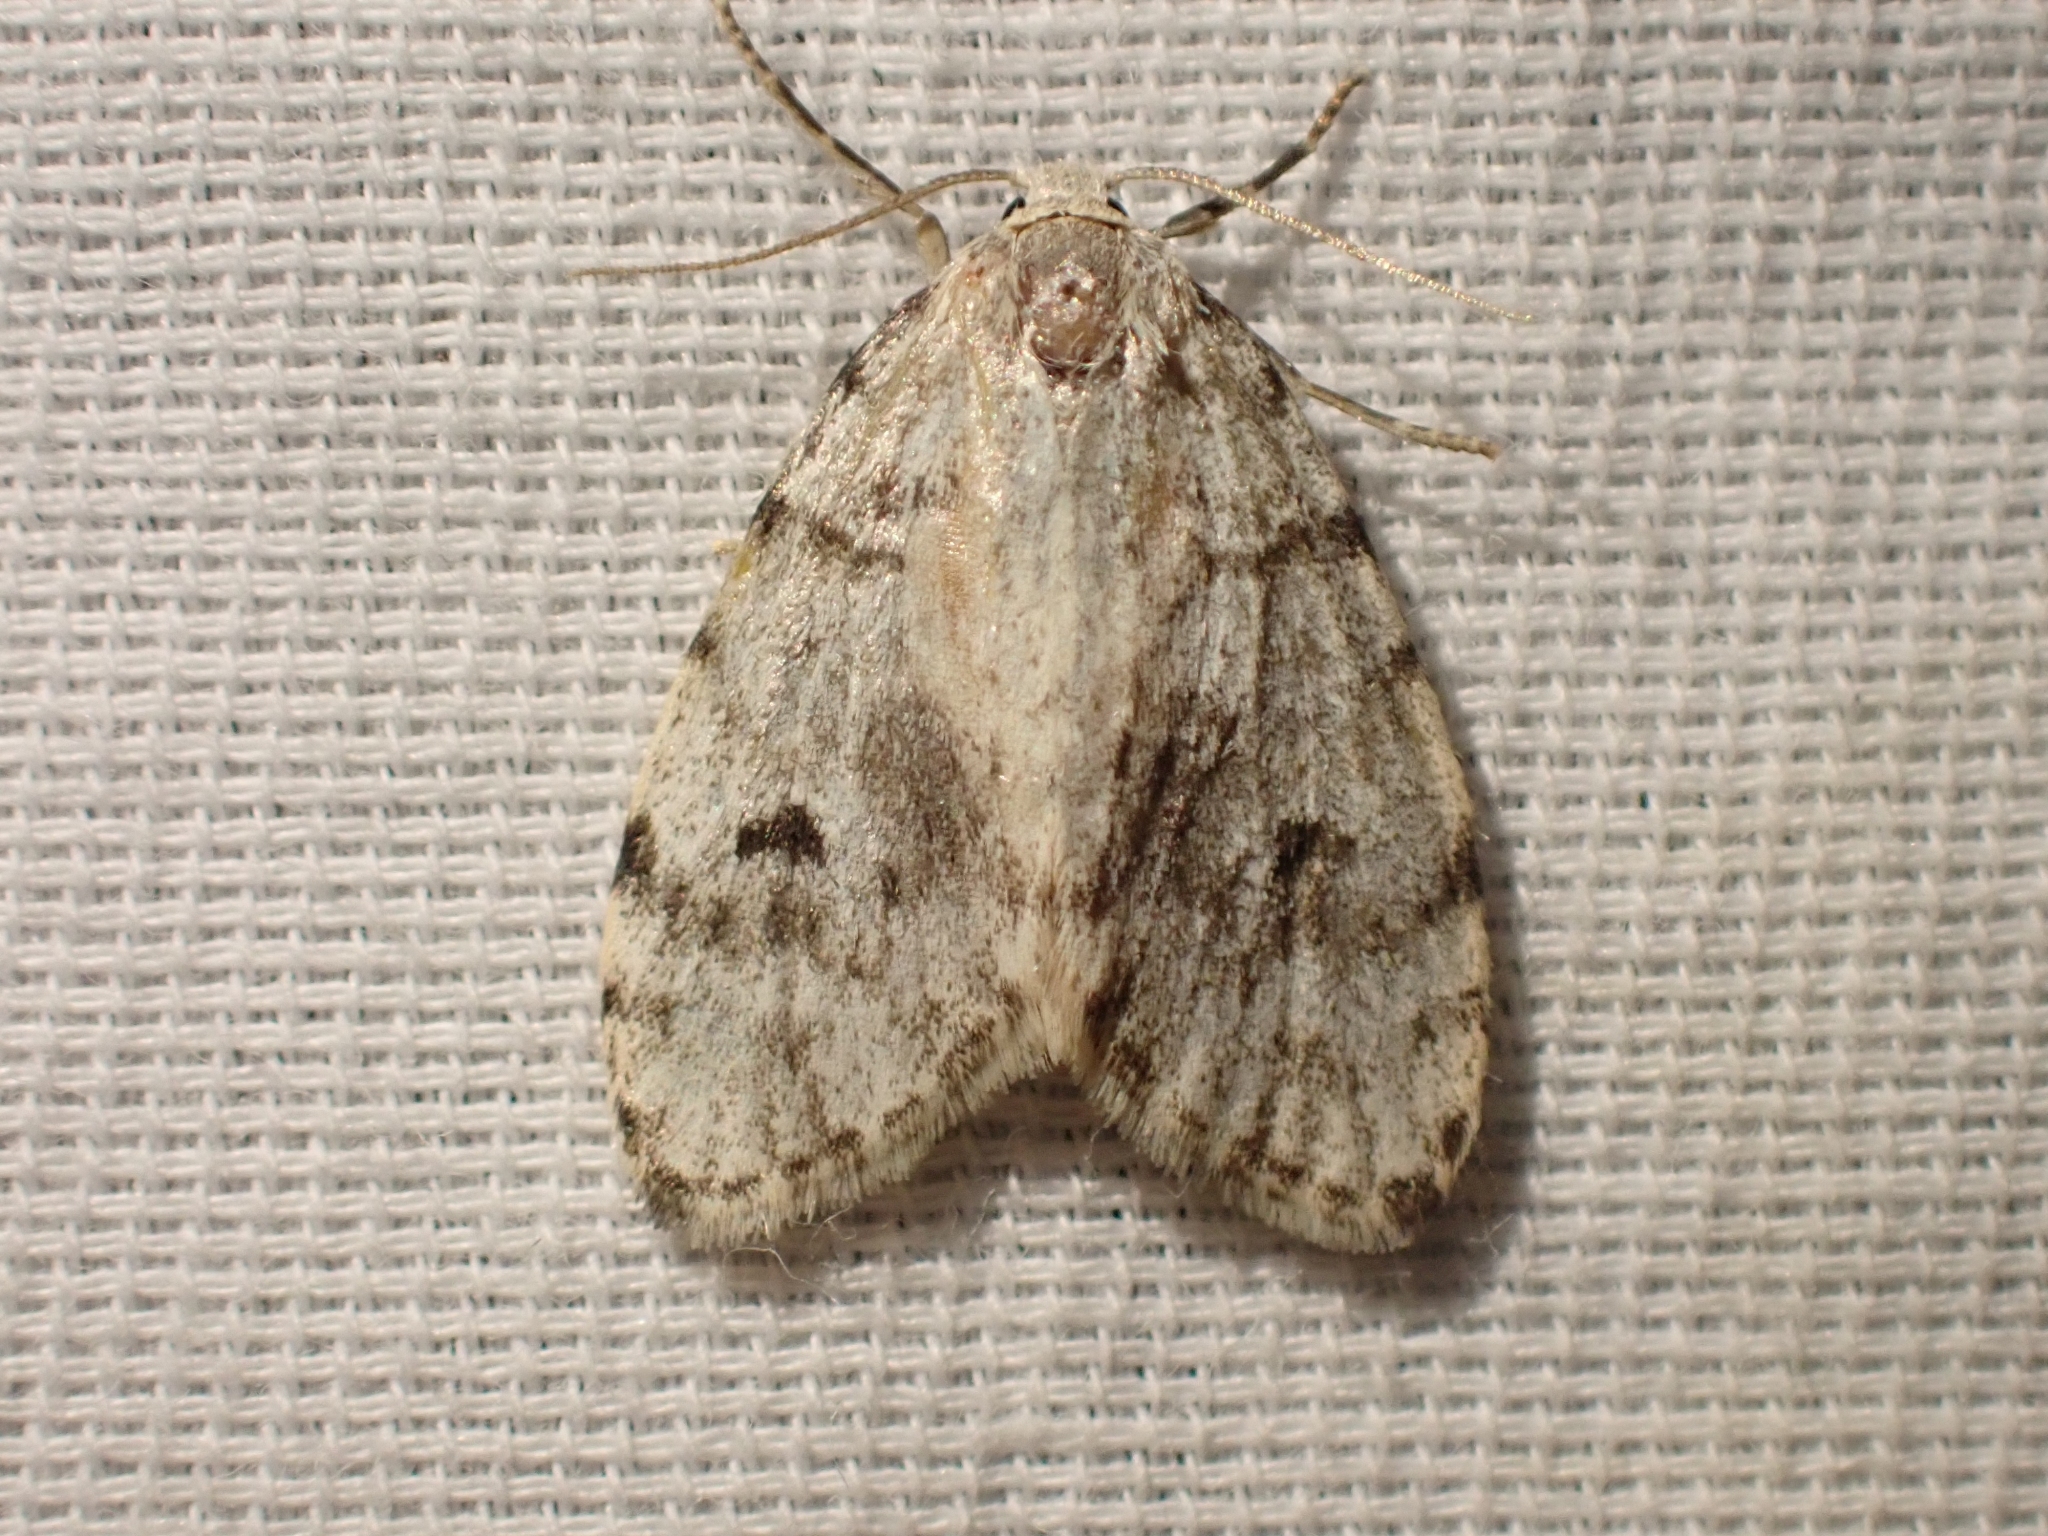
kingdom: Animalia
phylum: Arthropoda
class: Insecta
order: Lepidoptera
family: Erebidae
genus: Clemensia
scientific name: Clemensia umbrata
